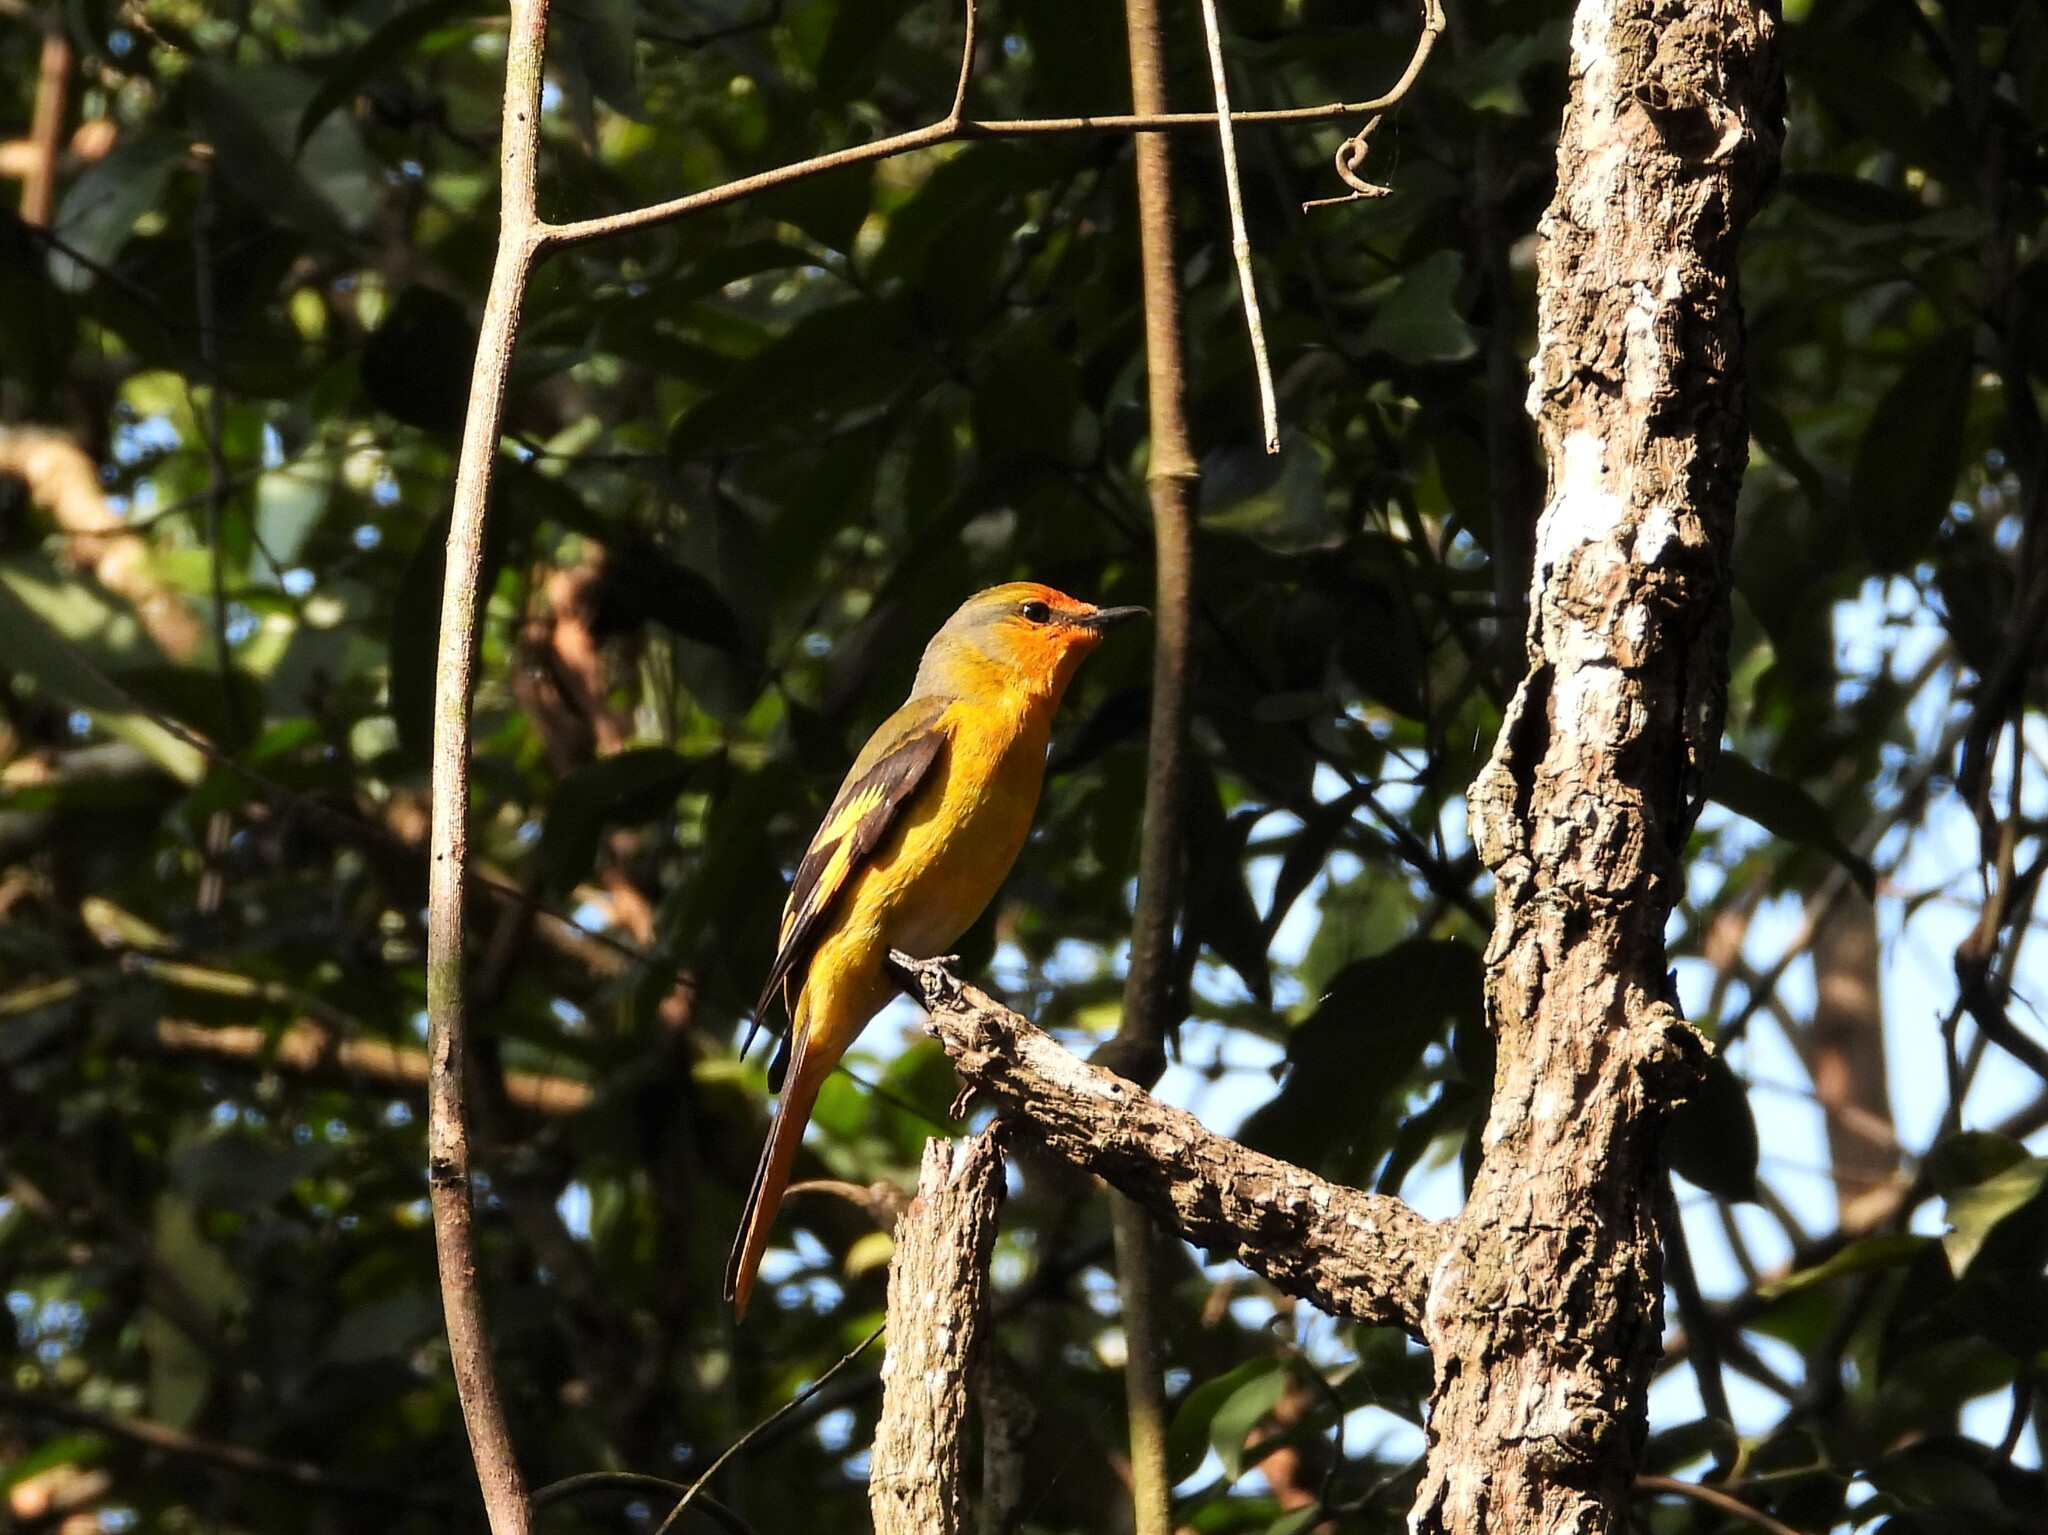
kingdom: Animalia
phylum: Chordata
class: Aves
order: Passeriformes
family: Campephagidae
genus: Pericrocotus
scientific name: Pericrocotus speciosus
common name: Scarlet minivet
